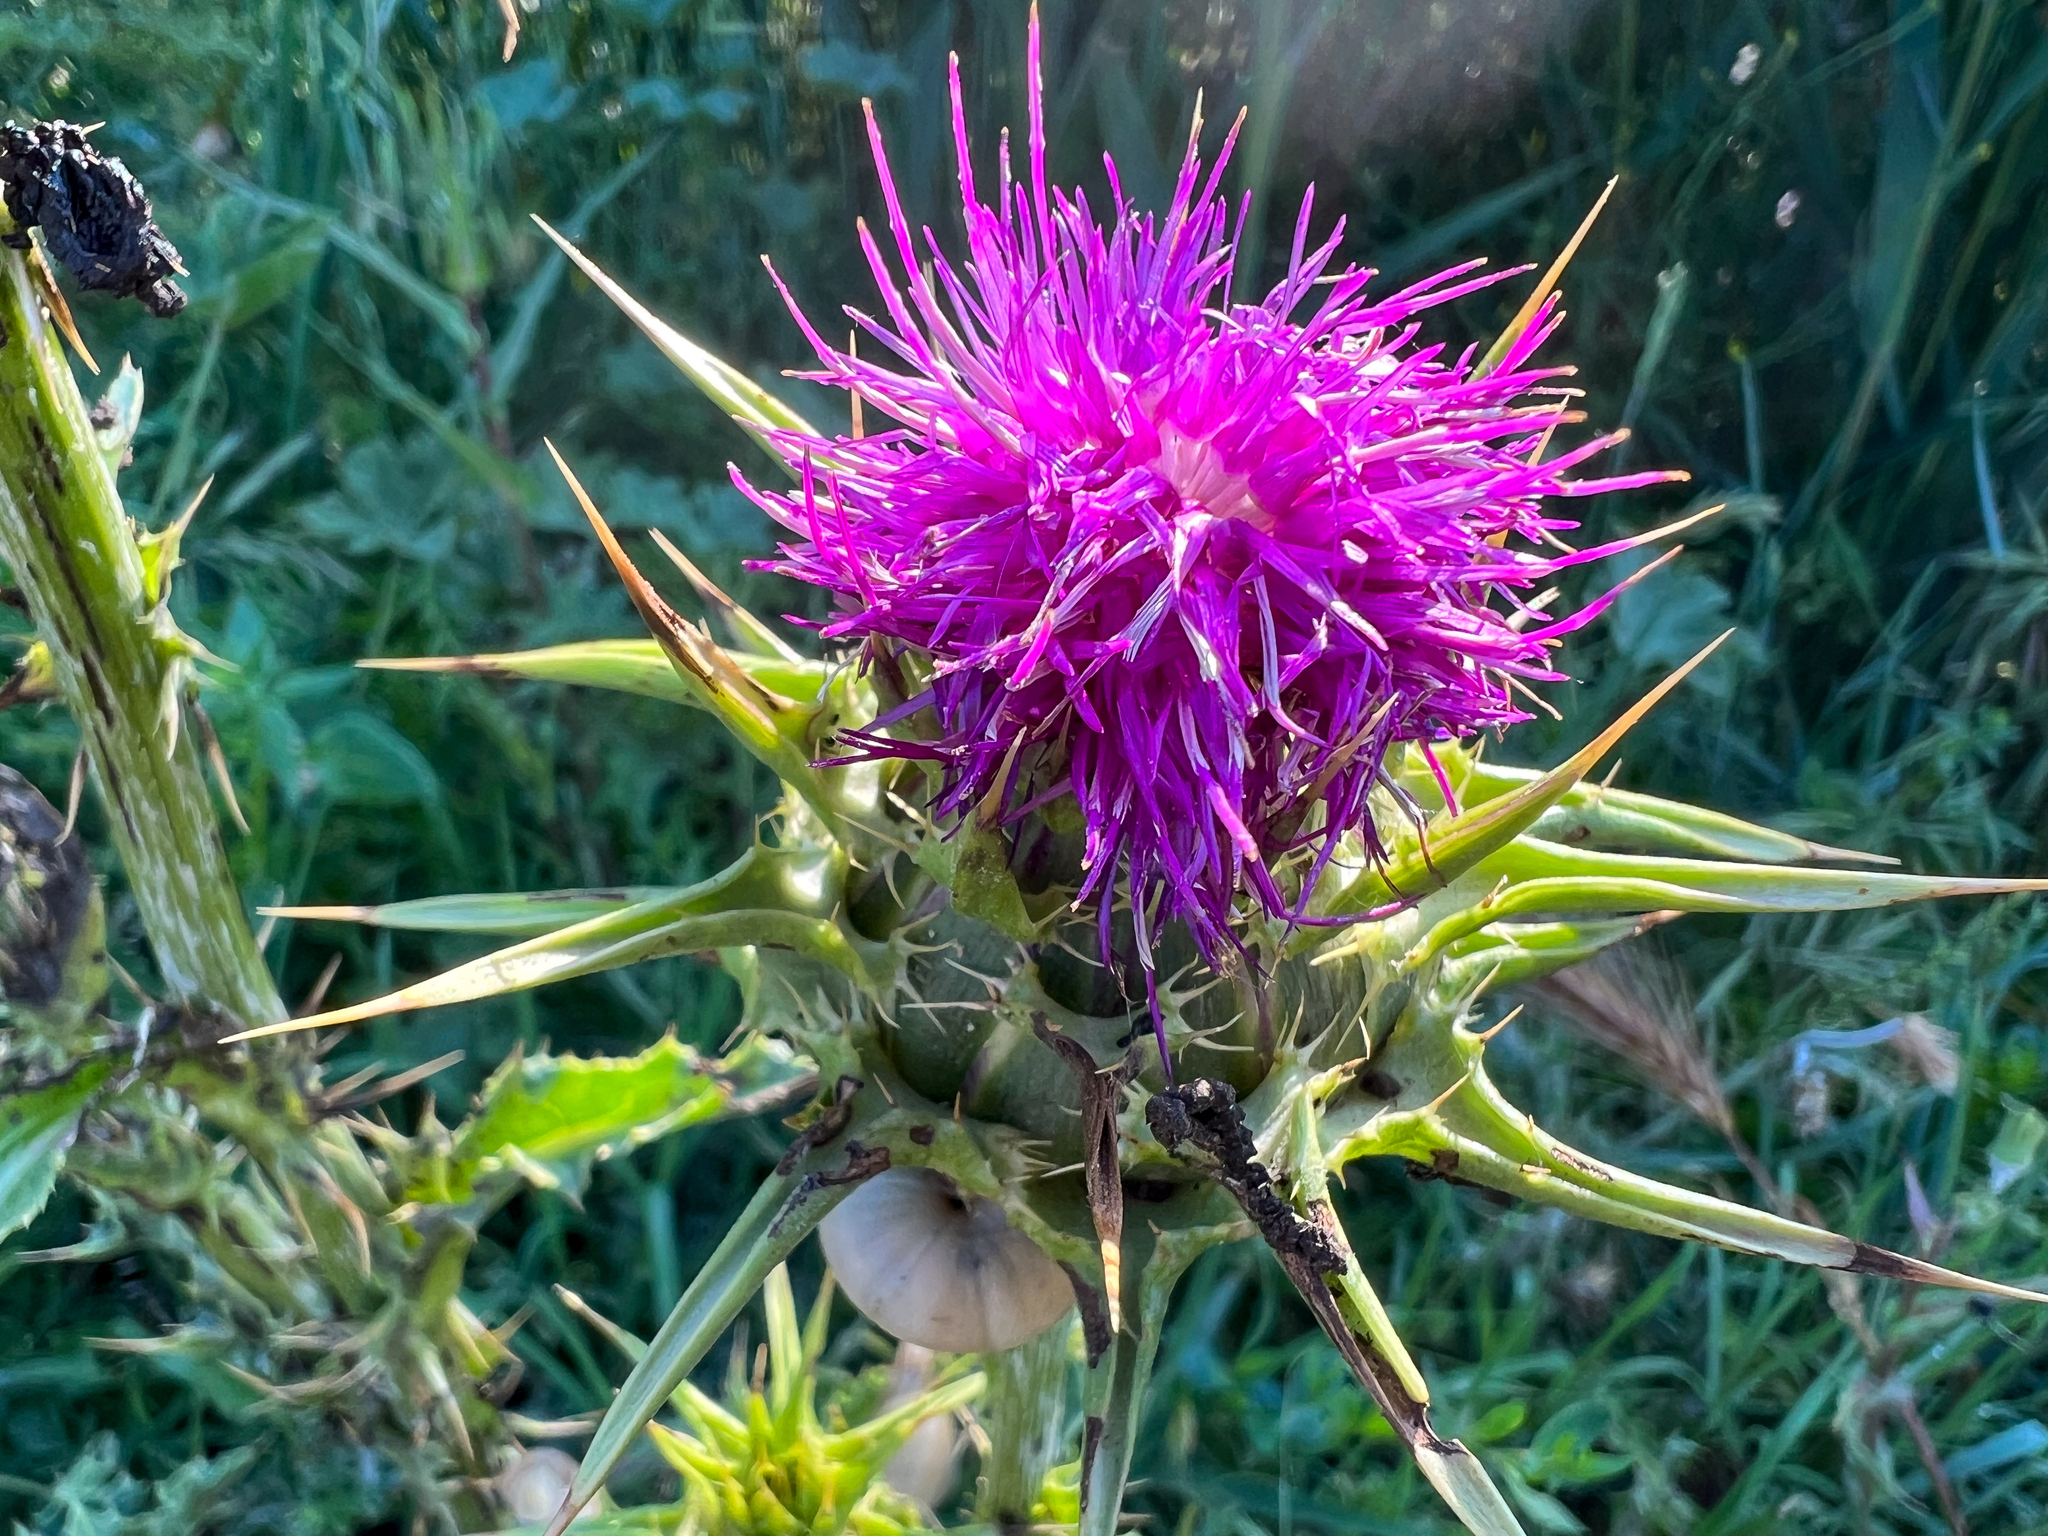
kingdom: Plantae
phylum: Tracheophyta
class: Magnoliopsida
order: Asterales
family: Asteraceae
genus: Silybum
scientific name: Silybum marianum
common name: Milk thistle
